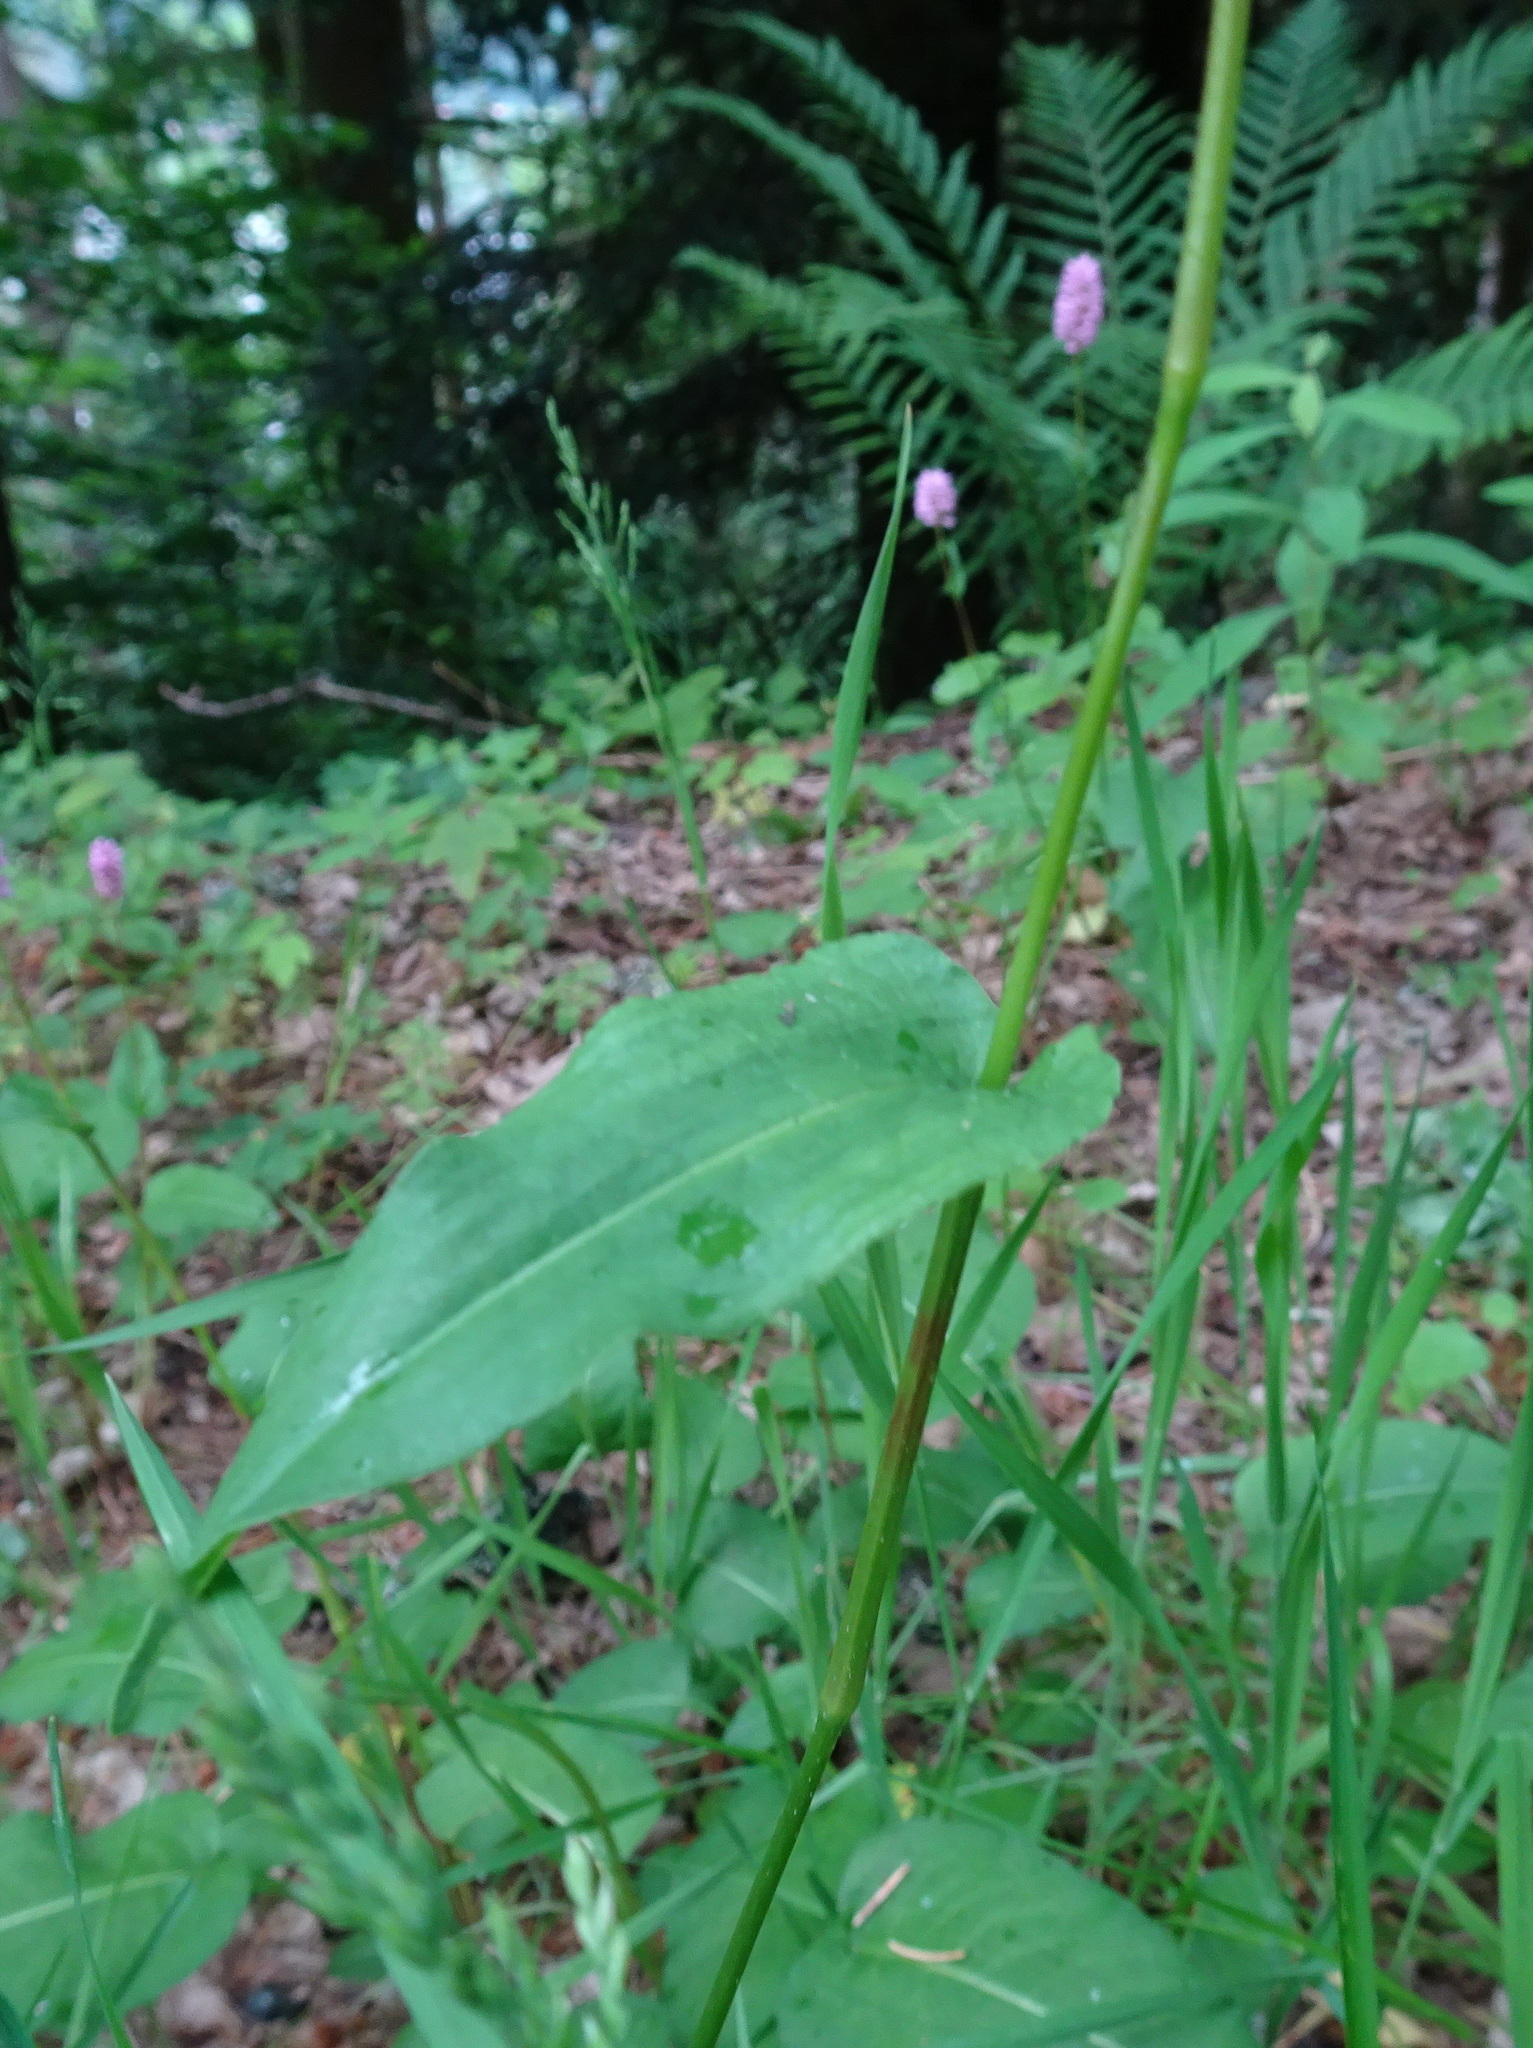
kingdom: Plantae
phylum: Tracheophyta
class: Magnoliopsida
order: Caryophyllales
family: Polygonaceae
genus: Bistorta
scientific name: Bistorta officinalis
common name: Common bistort
